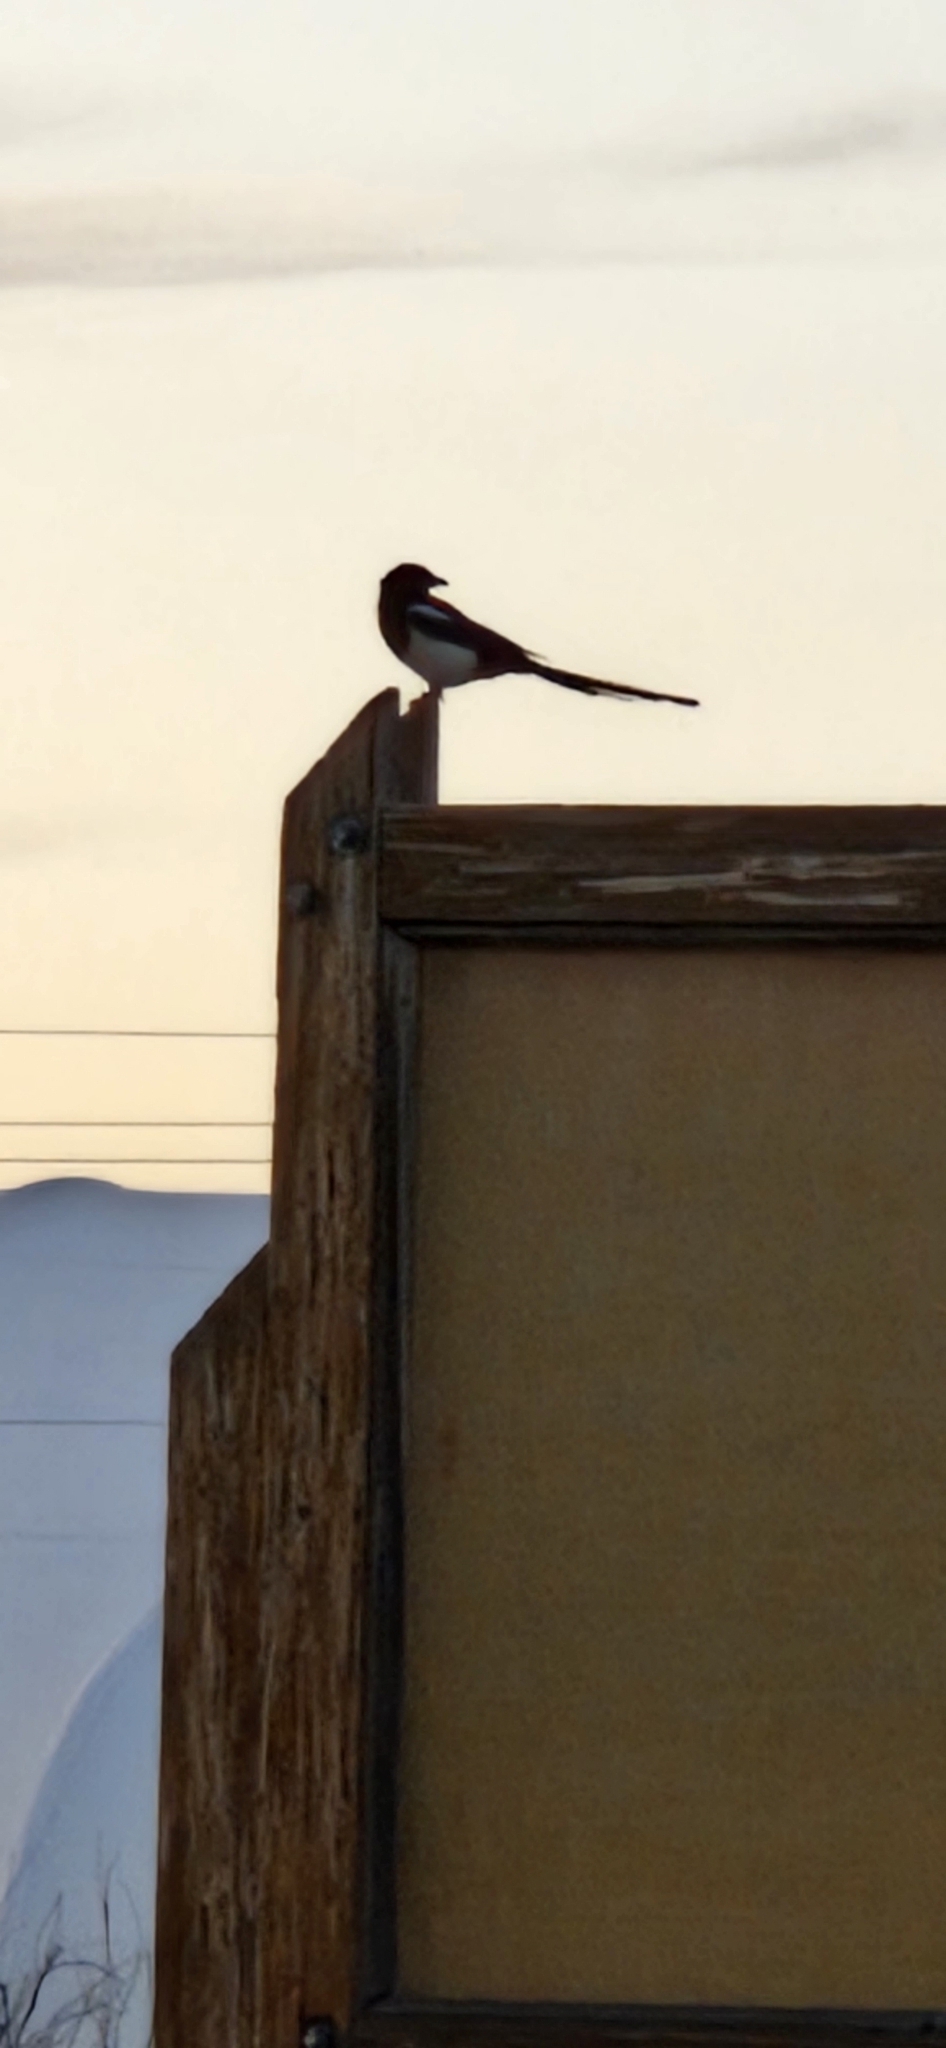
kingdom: Animalia
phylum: Chordata
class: Aves
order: Passeriformes
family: Corvidae
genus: Pica
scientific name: Pica hudsonia
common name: Black-billed magpie
